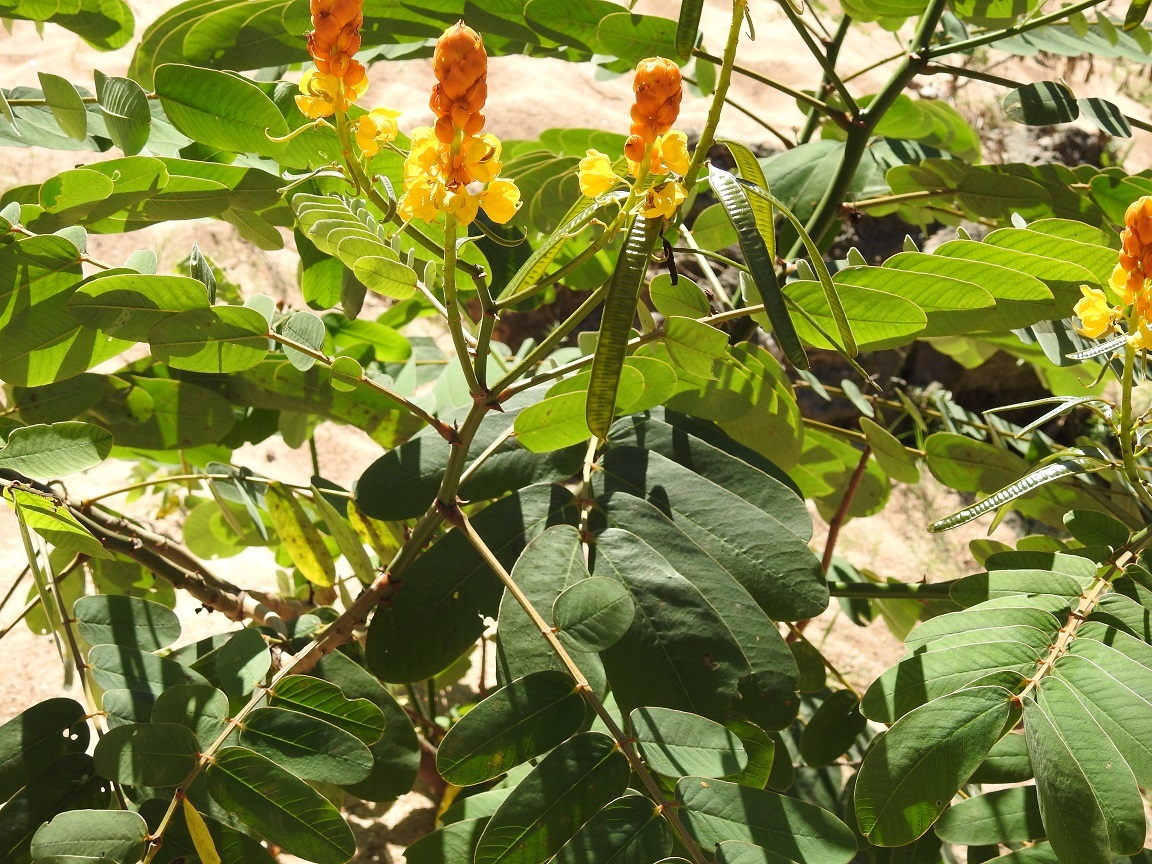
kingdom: Plantae
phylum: Tracheophyta
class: Magnoliopsida
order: Fabales
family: Fabaceae
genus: Senna
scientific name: Senna reticulata
